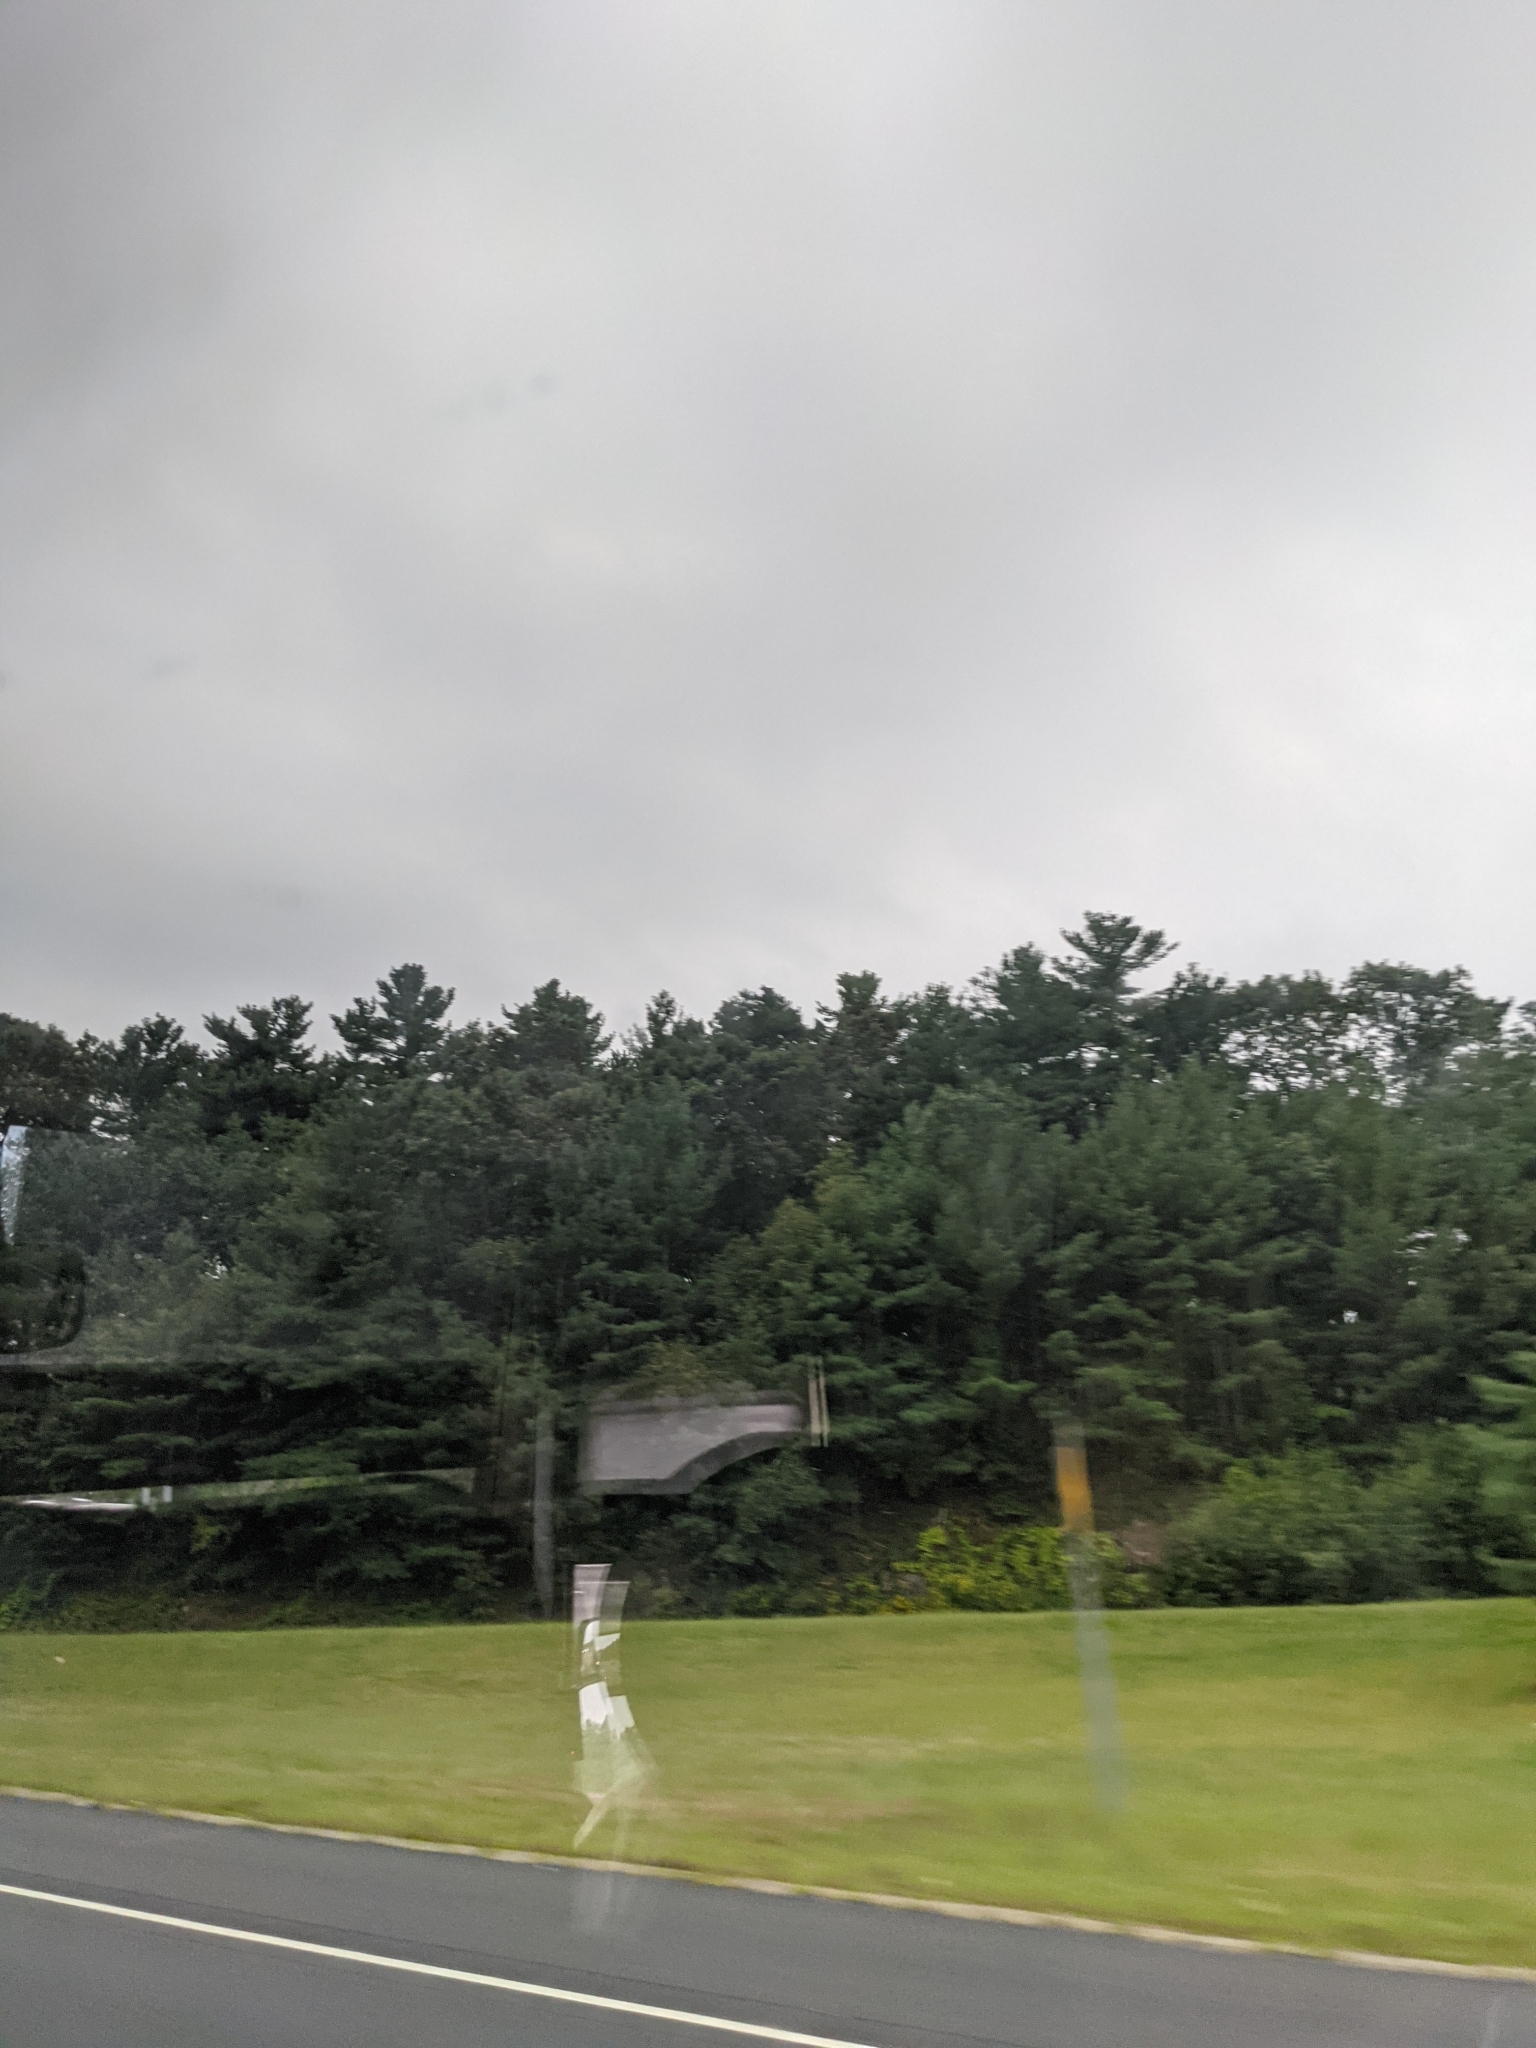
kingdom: Plantae
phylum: Tracheophyta
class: Pinopsida
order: Pinales
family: Pinaceae
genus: Pinus
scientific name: Pinus strobus
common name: Weymouth pine
